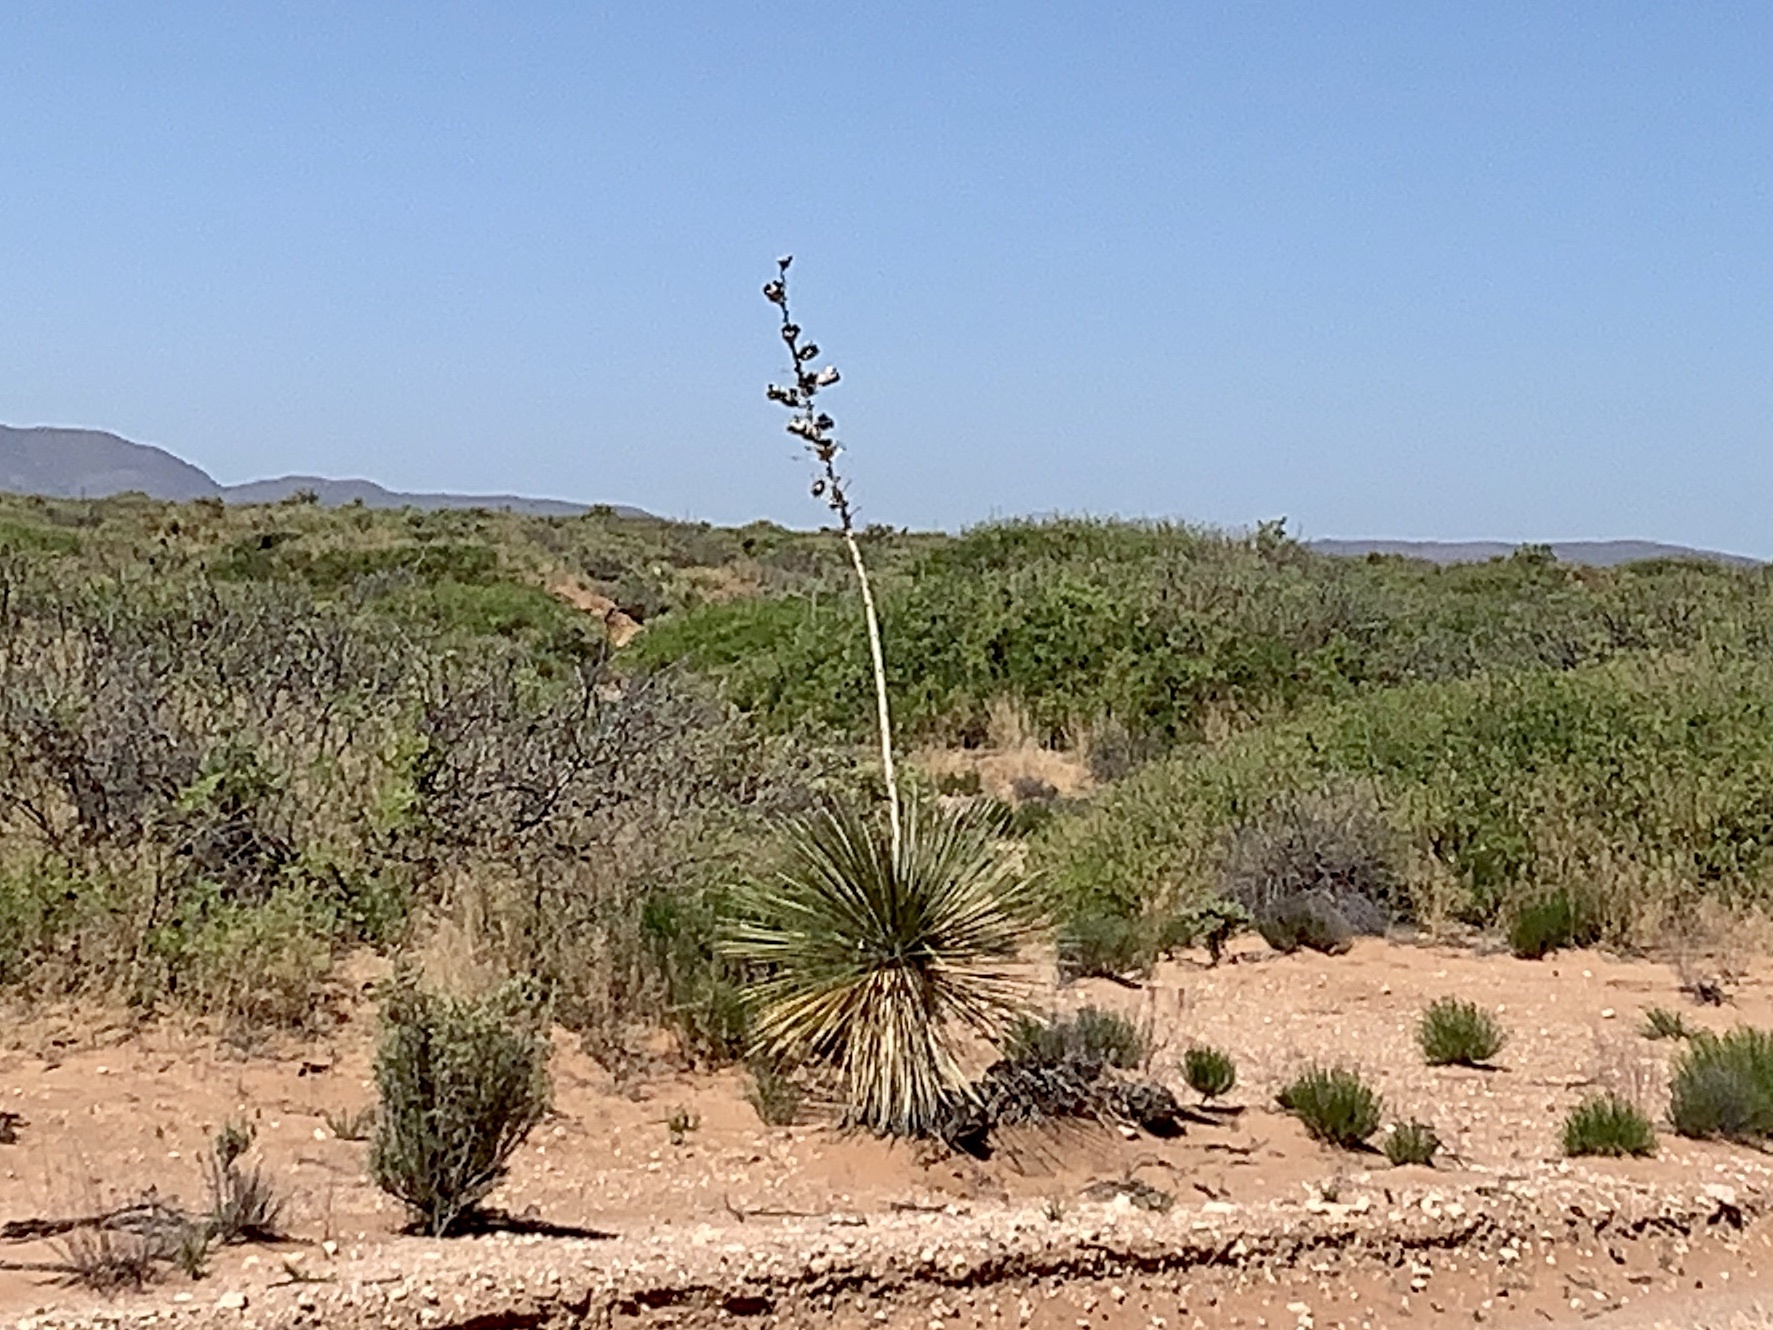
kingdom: Plantae
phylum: Tracheophyta
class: Liliopsida
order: Asparagales
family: Asparagaceae
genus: Yucca
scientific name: Yucca elata
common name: Palmella
